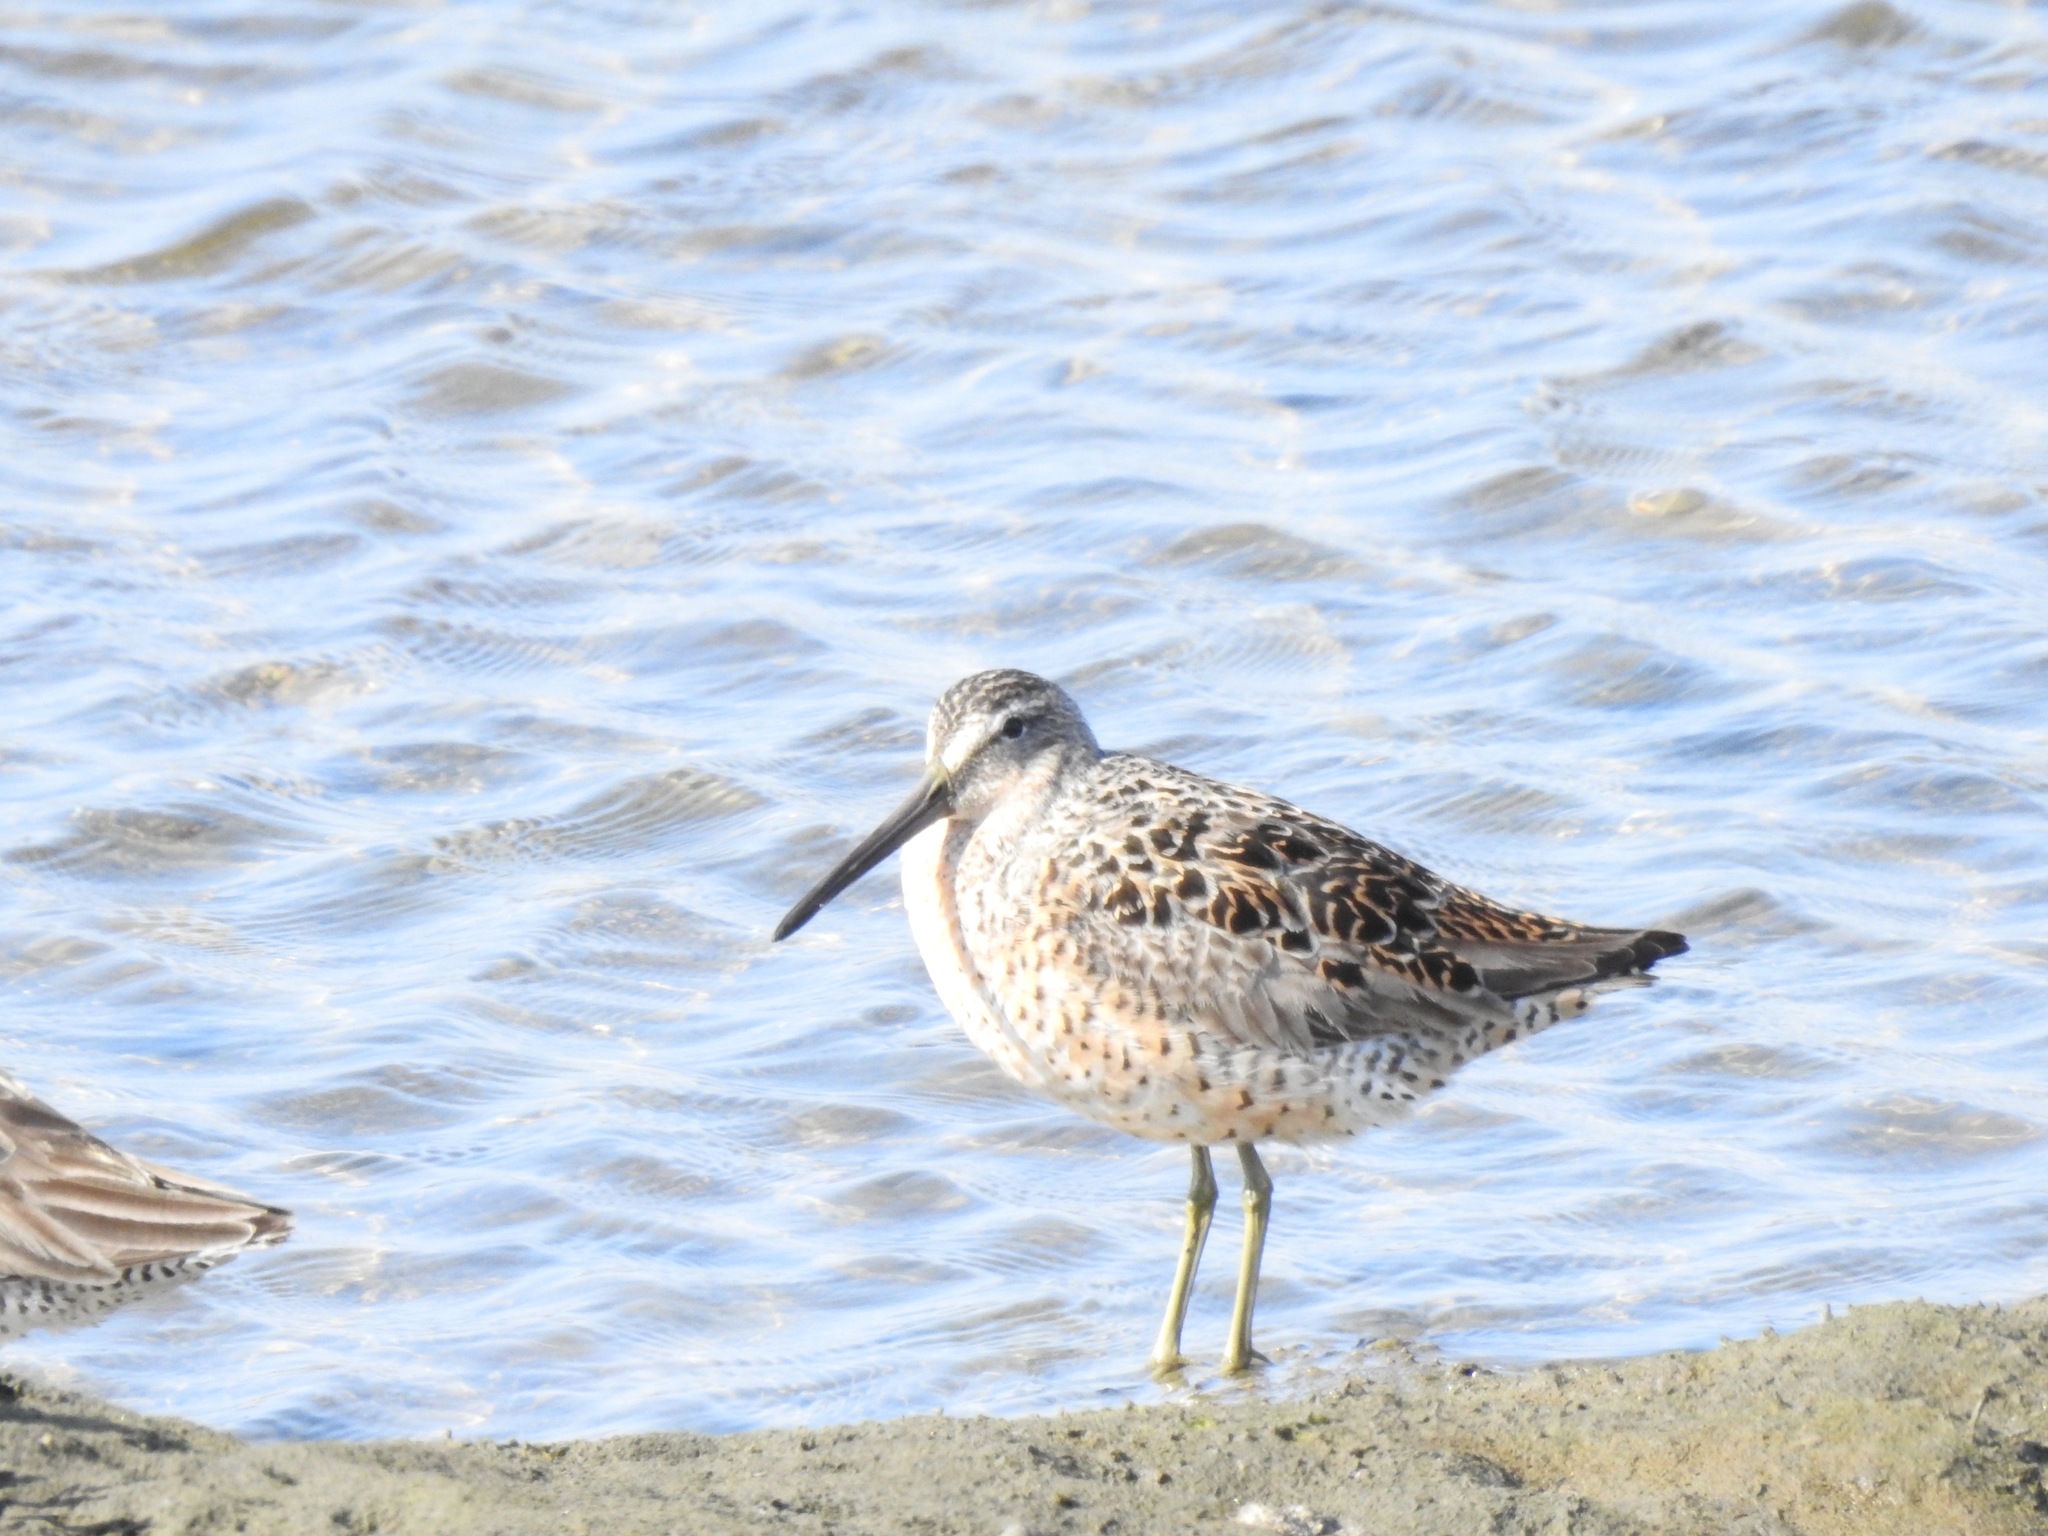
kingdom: Animalia
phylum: Chordata
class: Aves
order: Charadriiformes
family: Scolopacidae
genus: Limnodromus
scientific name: Limnodromus griseus
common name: Short-billed dowitcher
